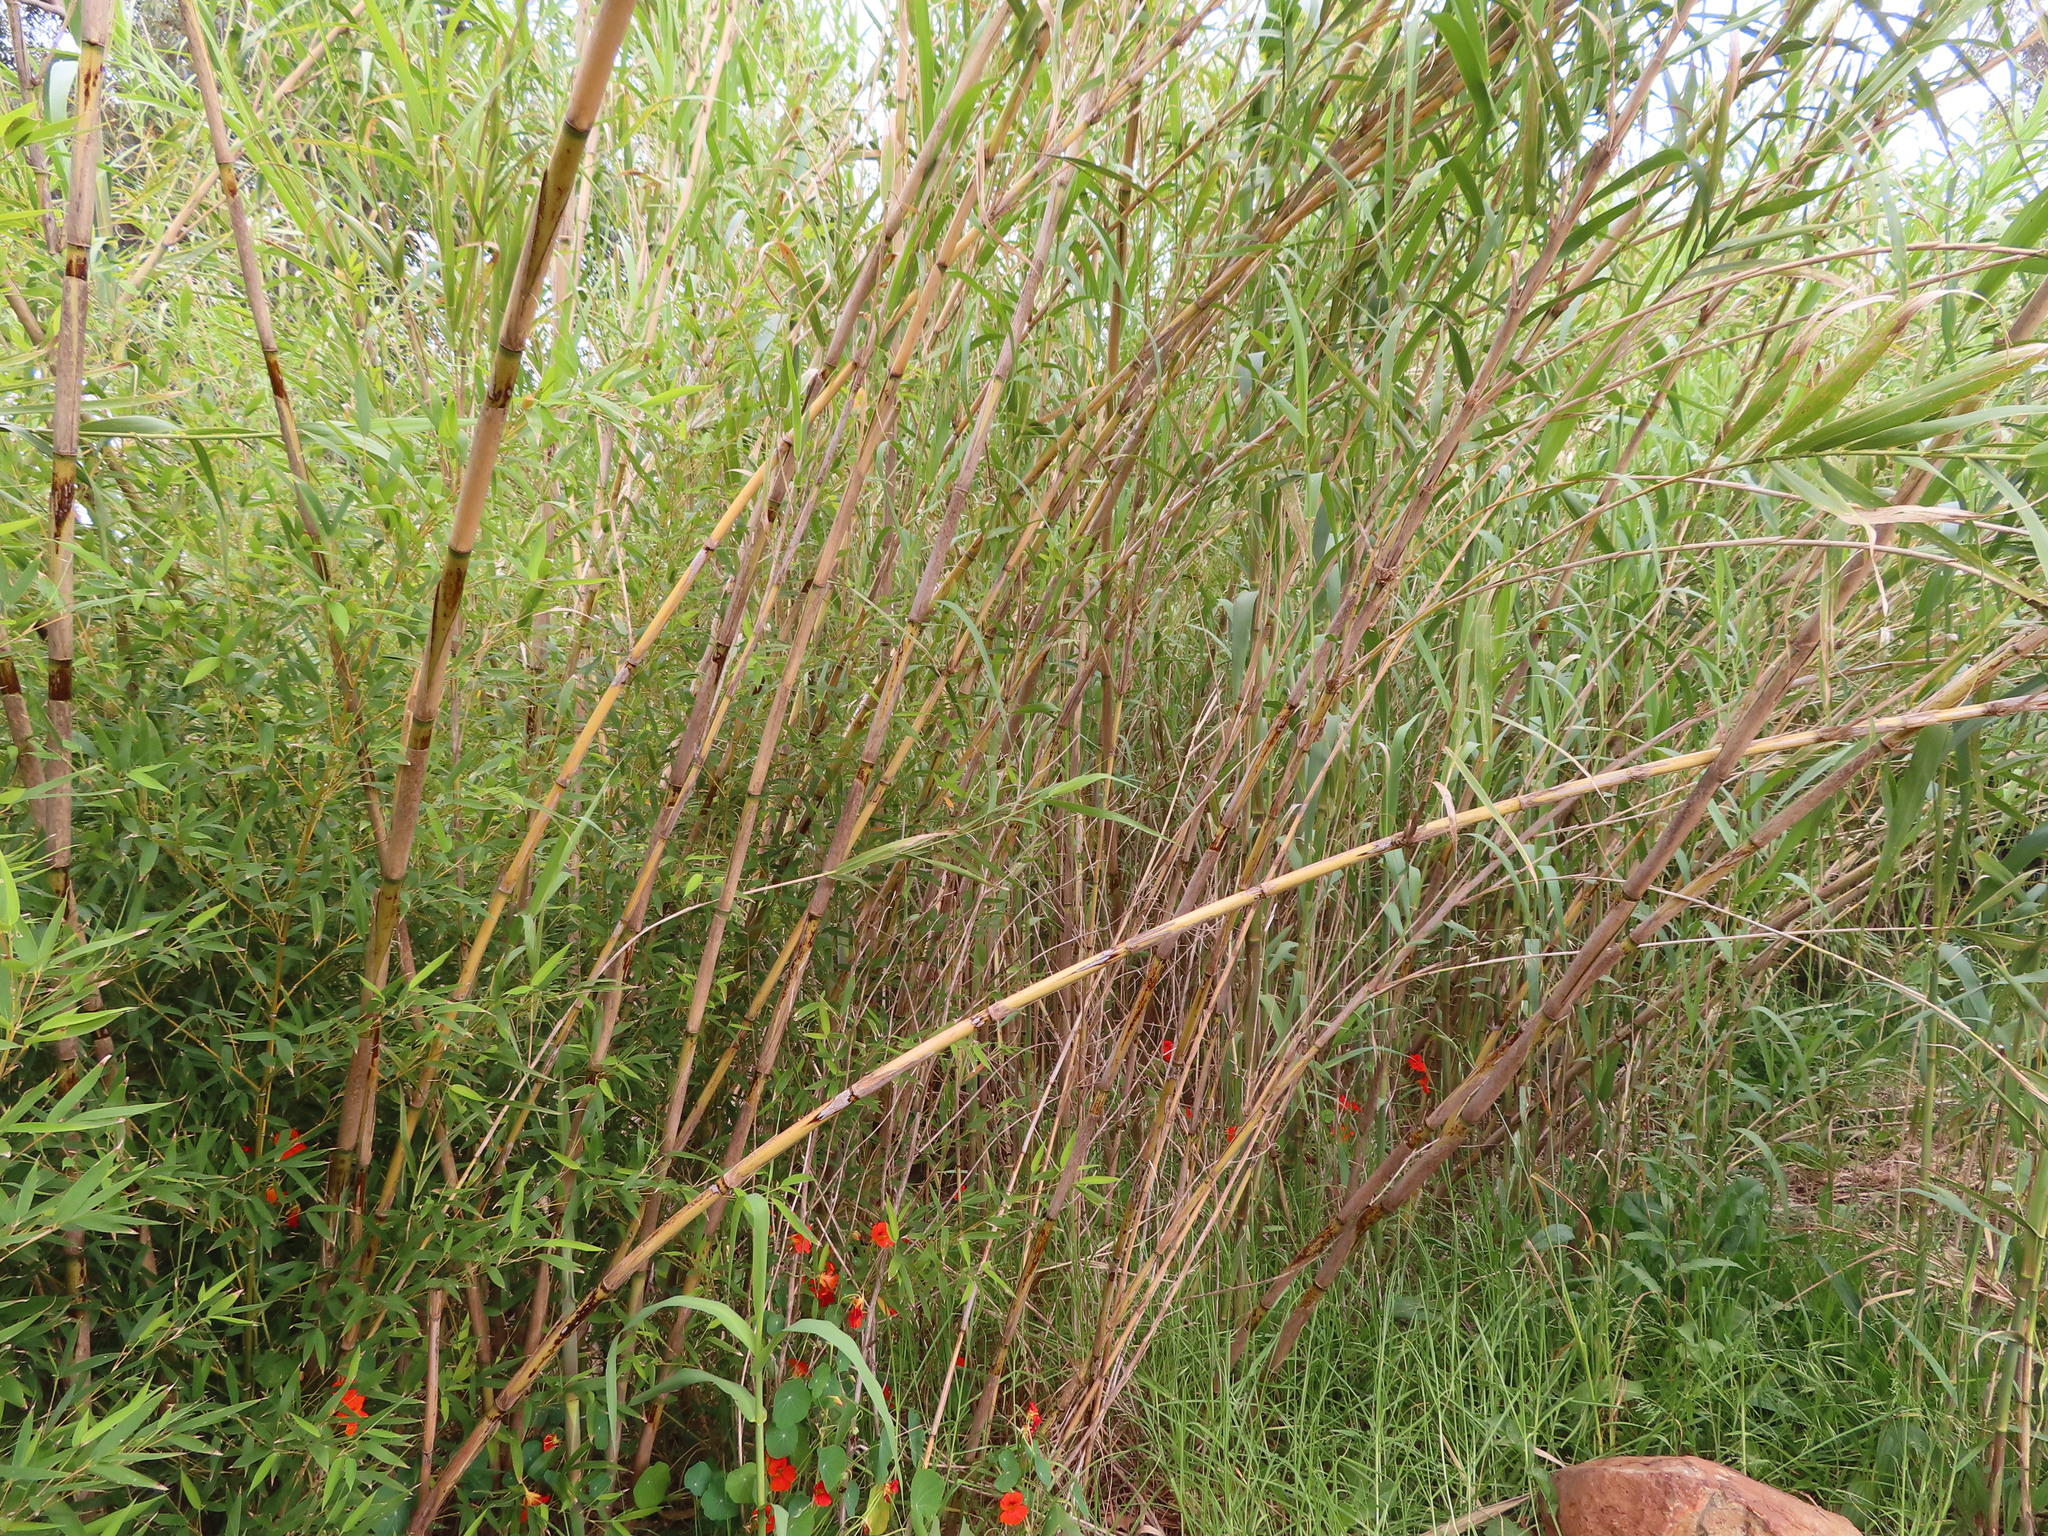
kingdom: Plantae
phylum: Tracheophyta
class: Liliopsida
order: Poales
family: Poaceae
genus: Arundo
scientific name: Arundo donax
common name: Giant reed
